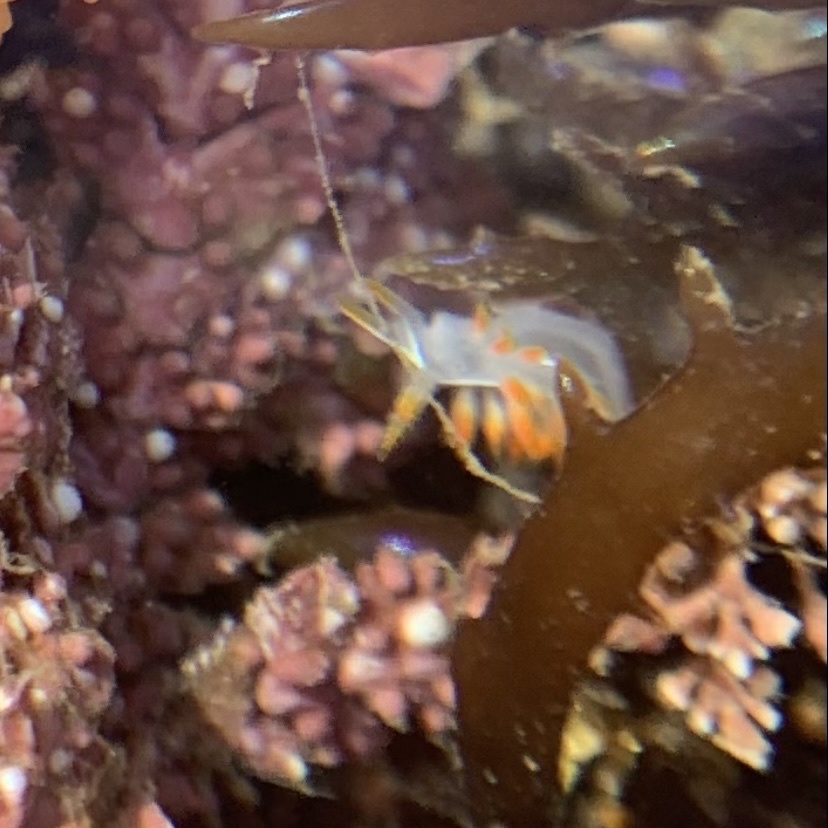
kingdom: Animalia
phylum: Mollusca
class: Gastropoda
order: Nudibranchia
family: Coryphellidae
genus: Coryphella
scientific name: Coryphella trilineata
